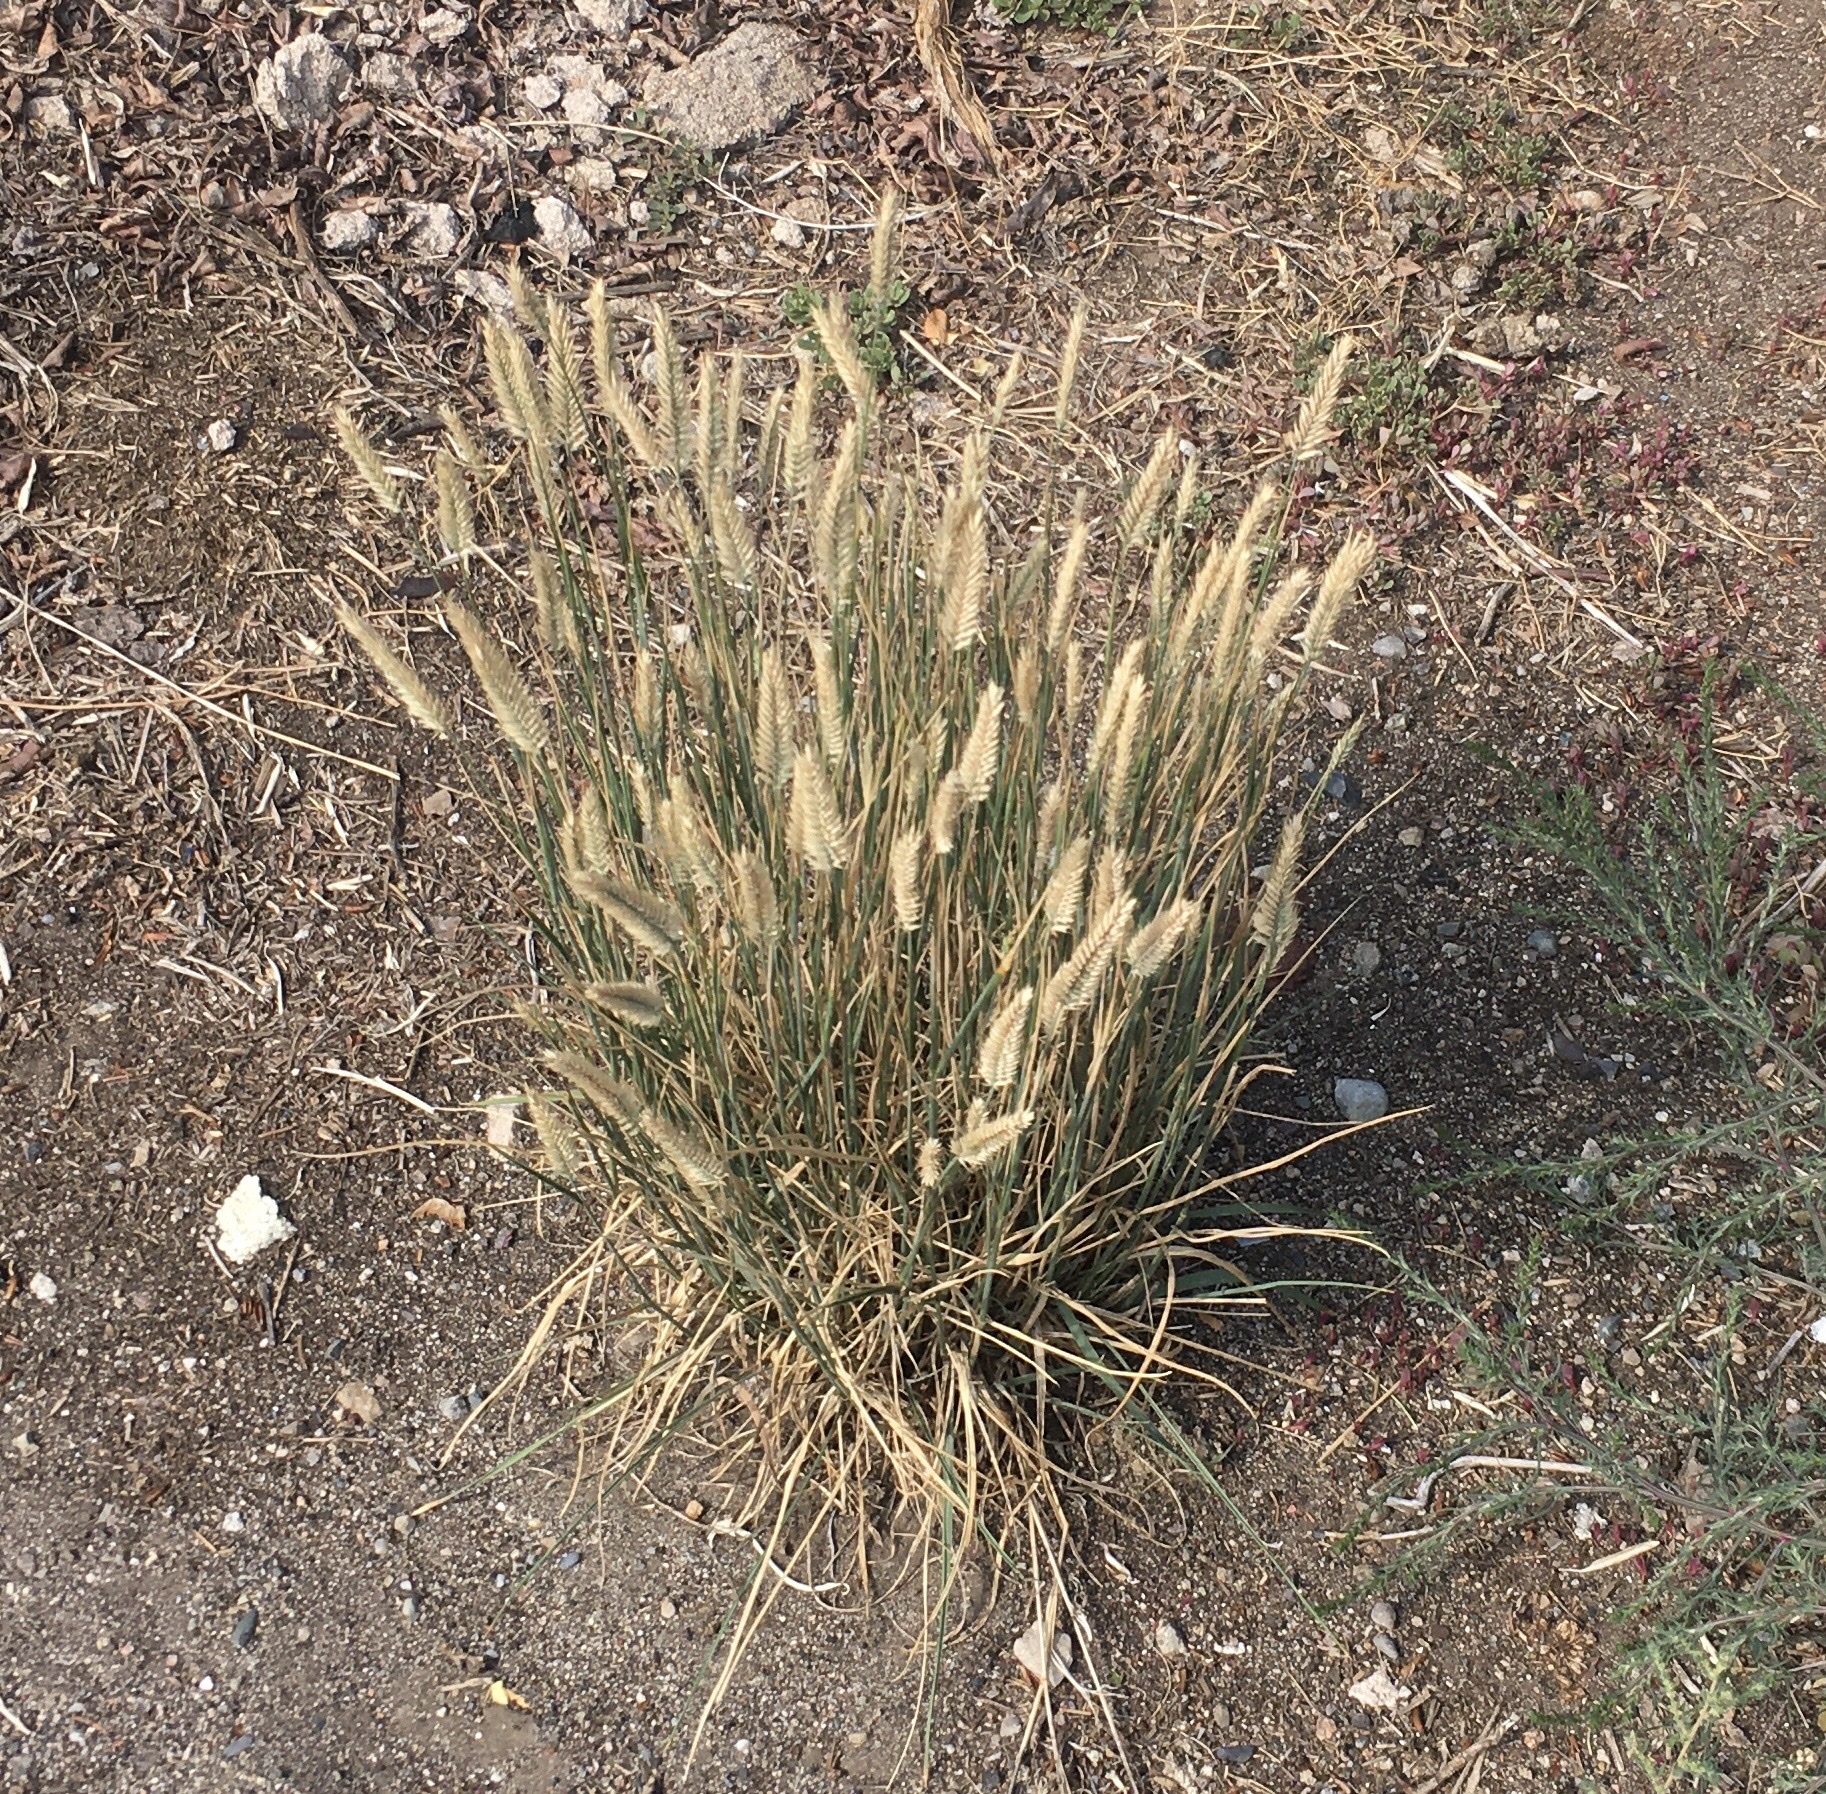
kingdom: Plantae
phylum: Tracheophyta
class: Liliopsida
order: Poales
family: Poaceae
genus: Agropyron
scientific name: Agropyron cristatum
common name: Crested wheatgrass
